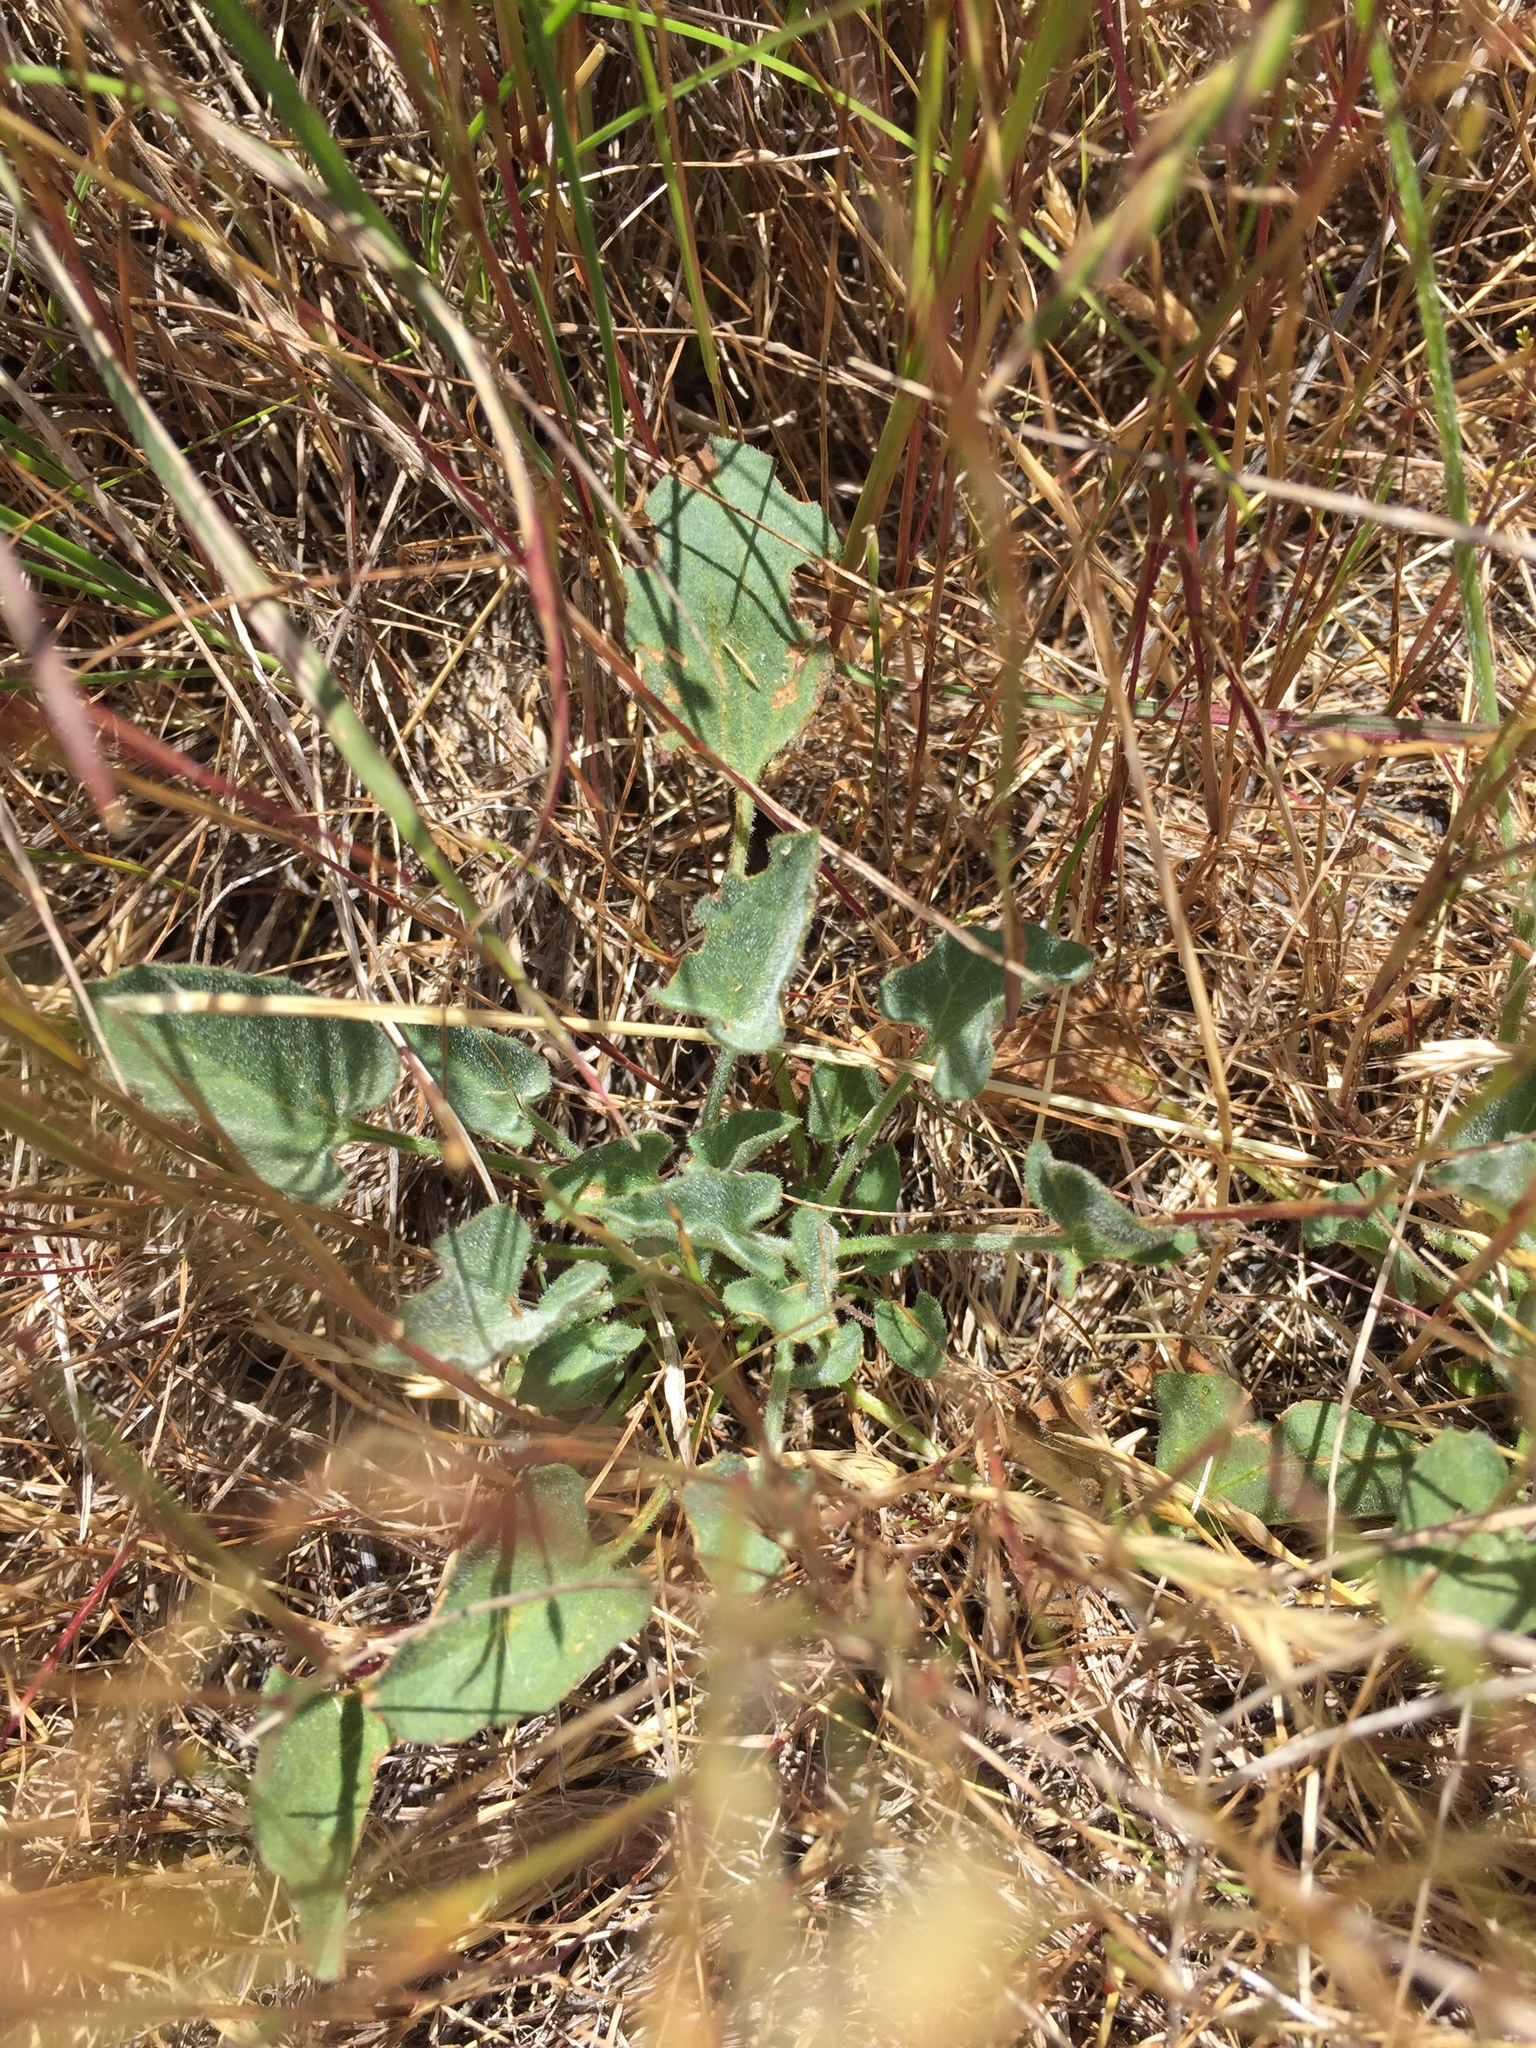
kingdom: Plantae
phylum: Tracheophyta
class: Magnoliopsida
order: Solanales
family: Convolvulaceae
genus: Calystegia
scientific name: Calystegia subacaulis
